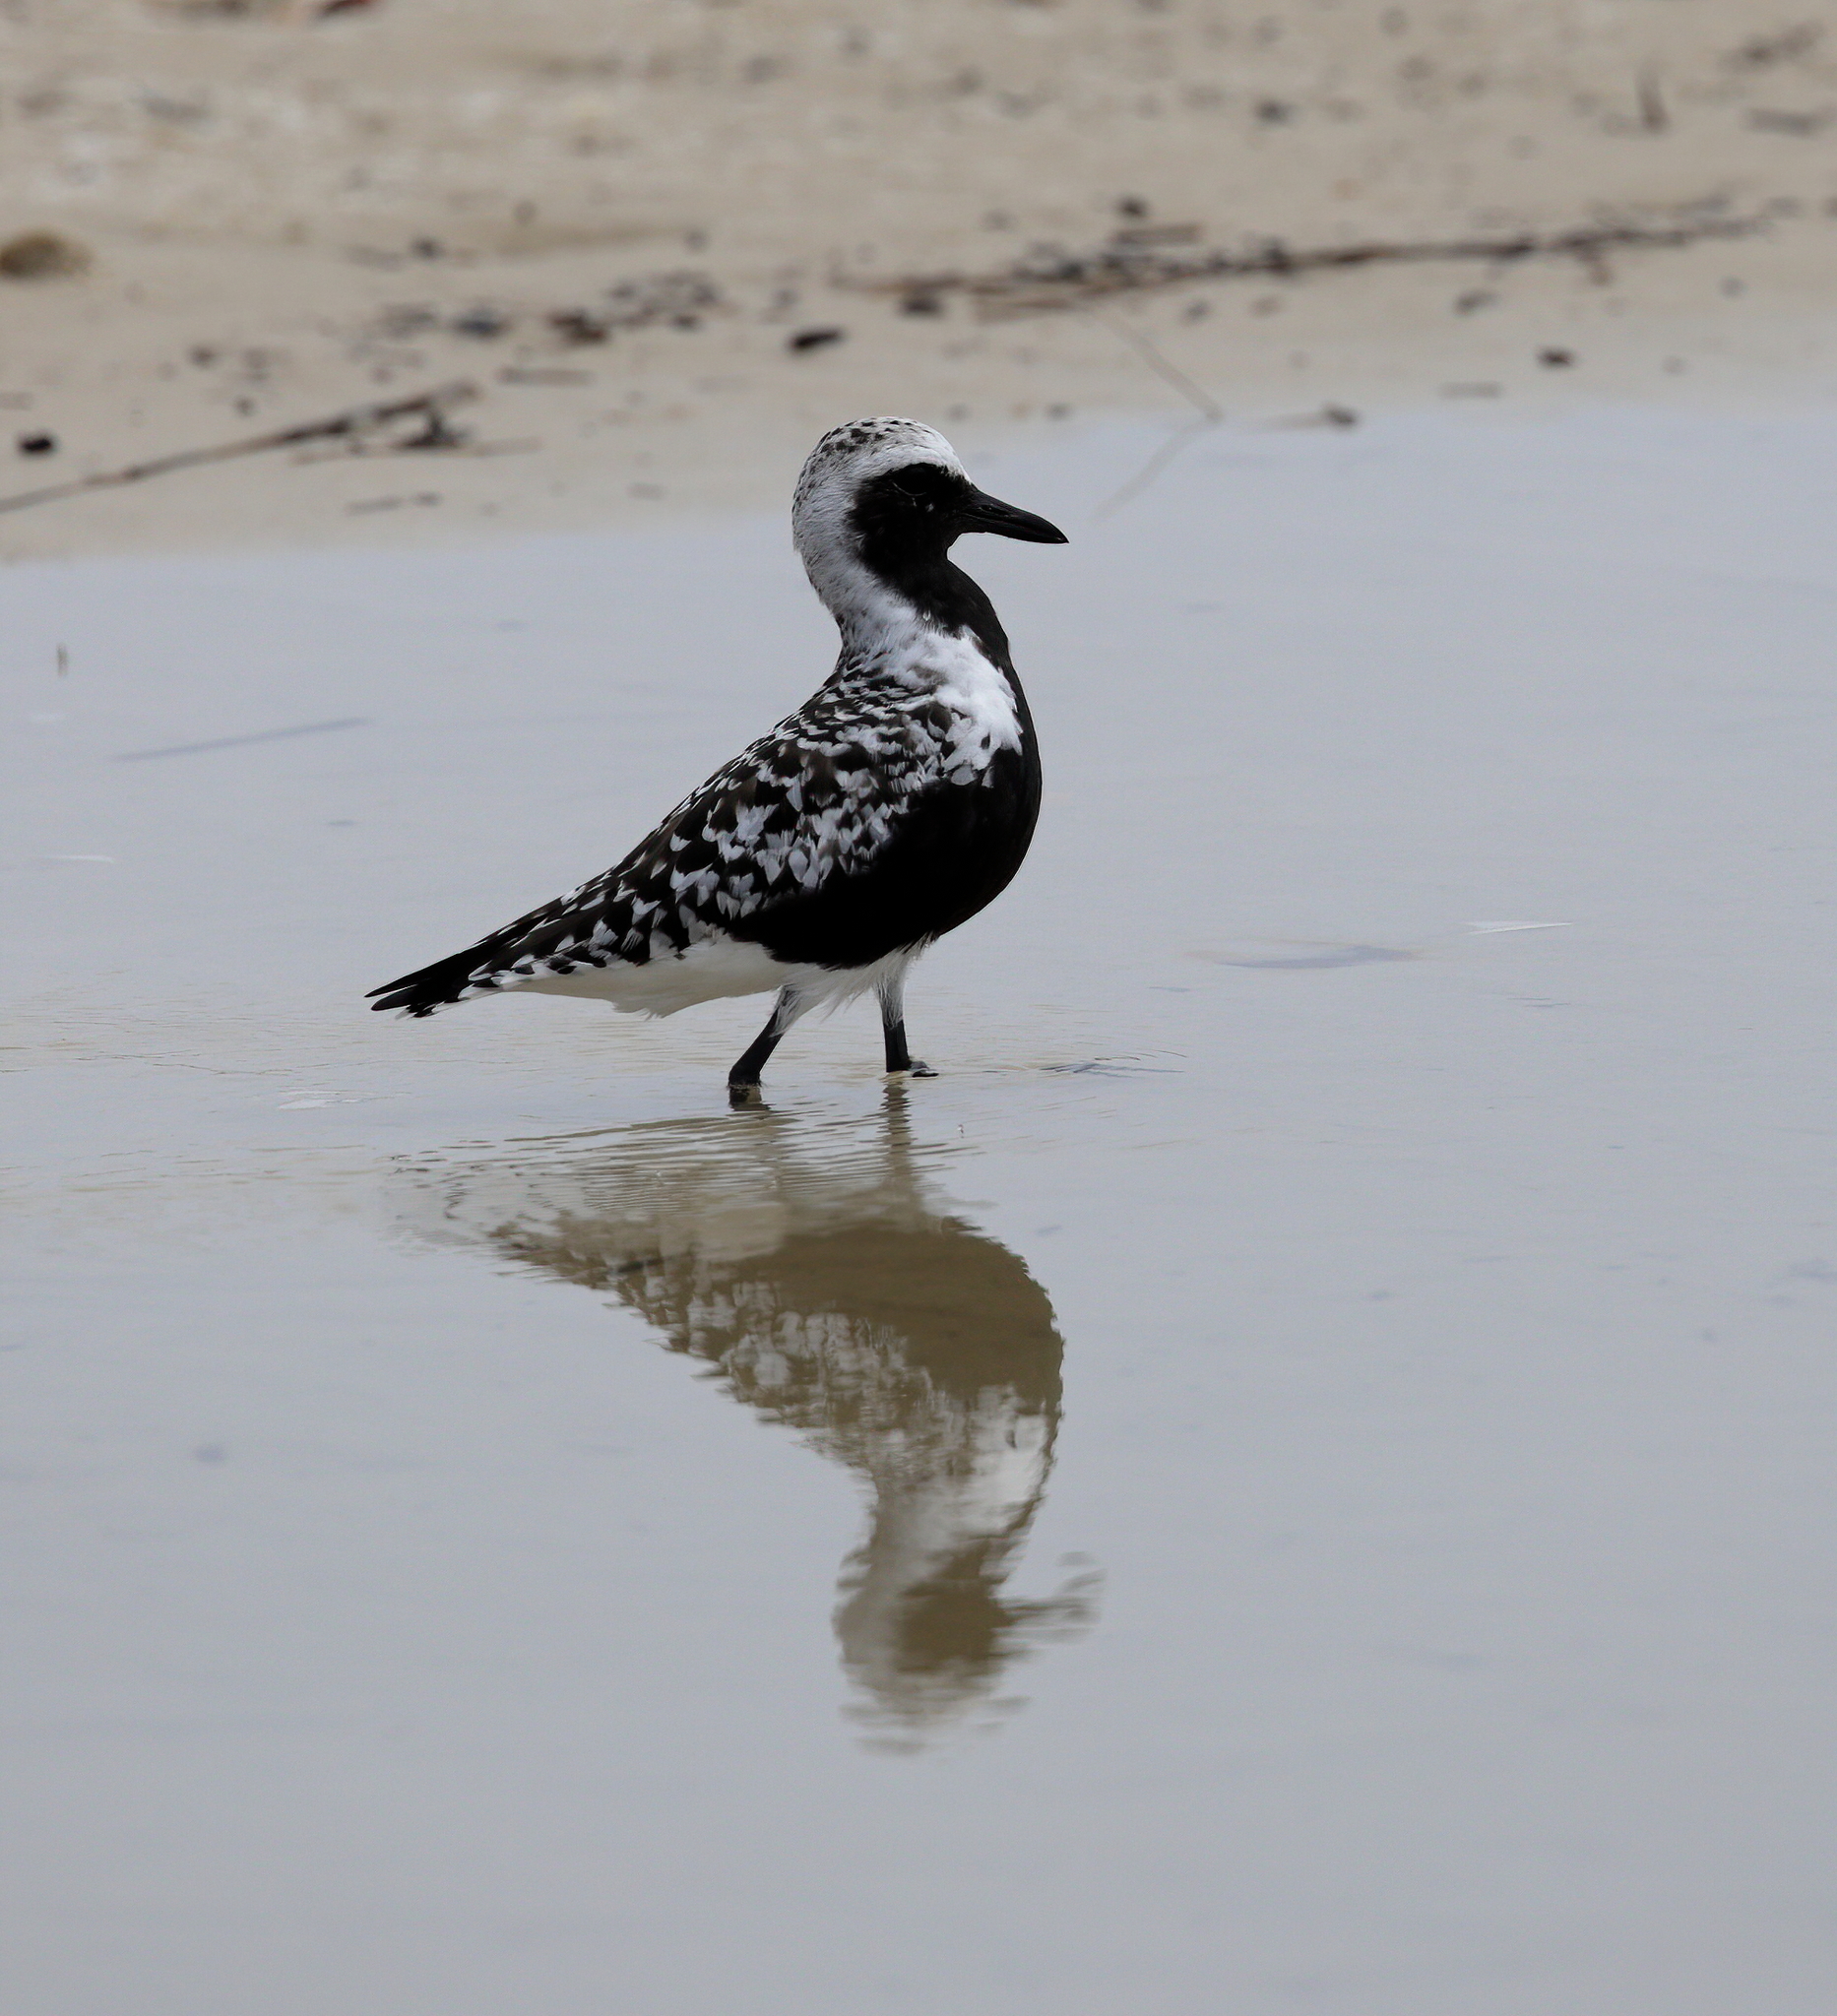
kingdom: Animalia
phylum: Chordata
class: Aves
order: Charadriiformes
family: Charadriidae
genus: Pluvialis
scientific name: Pluvialis squatarola
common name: Grey plover
